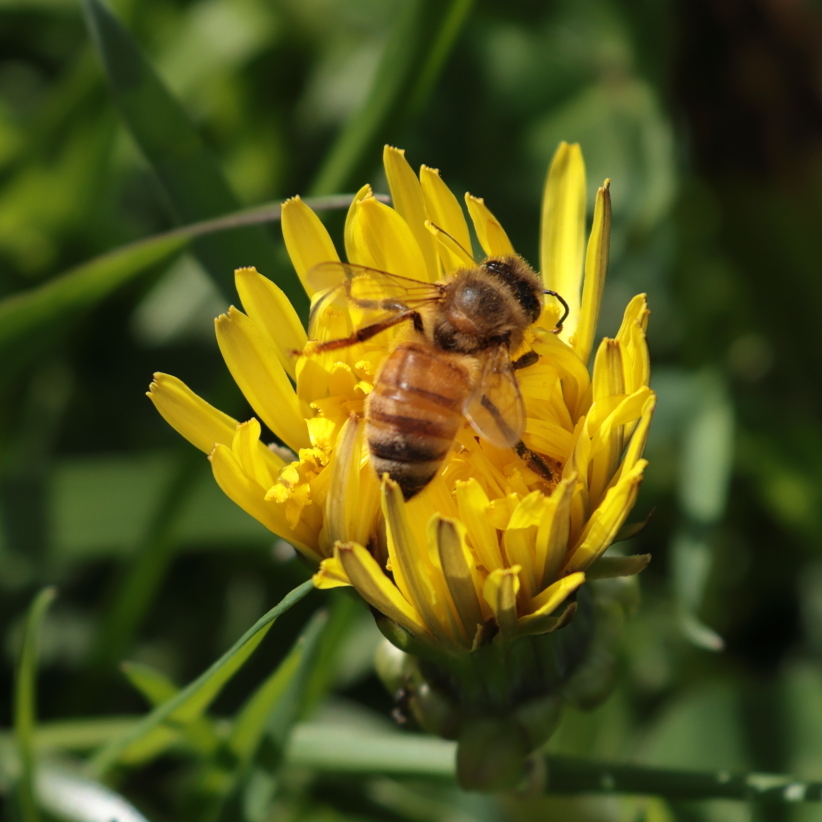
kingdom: Animalia
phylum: Arthropoda
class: Insecta
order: Hymenoptera
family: Apidae
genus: Apis
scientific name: Apis mellifera
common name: Honey bee
